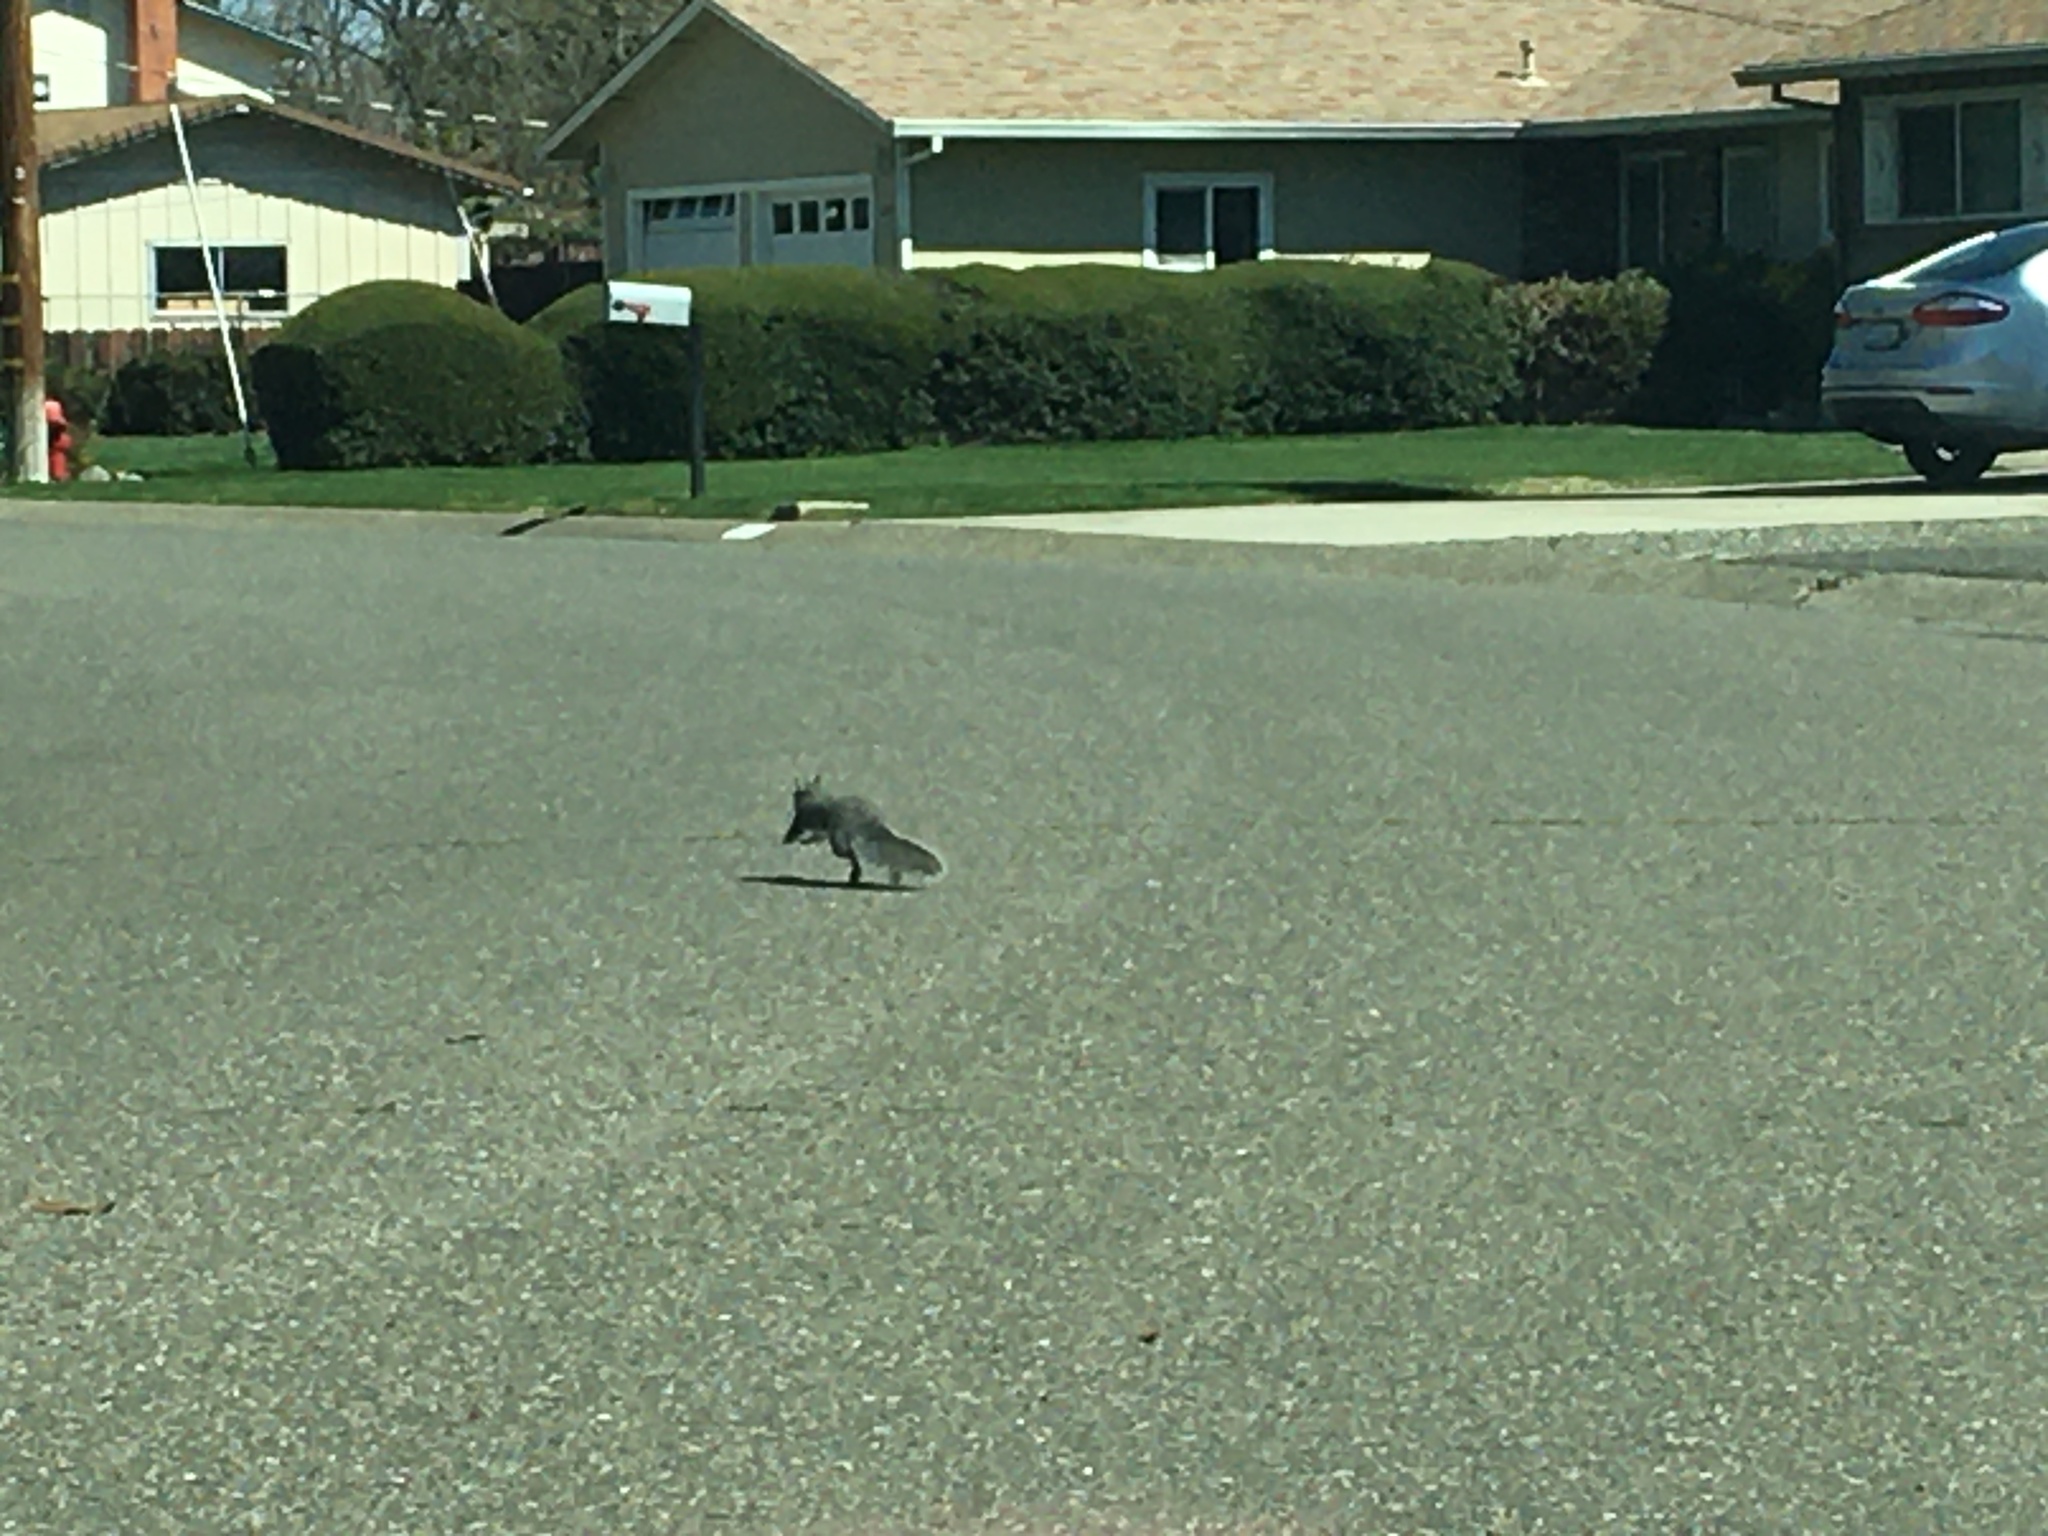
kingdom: Animalia
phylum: Chordata
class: Mammalia
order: Rodentia
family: Sciuridae
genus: Sciurus
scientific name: Sciurus griseus
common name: Western gray squirrel
